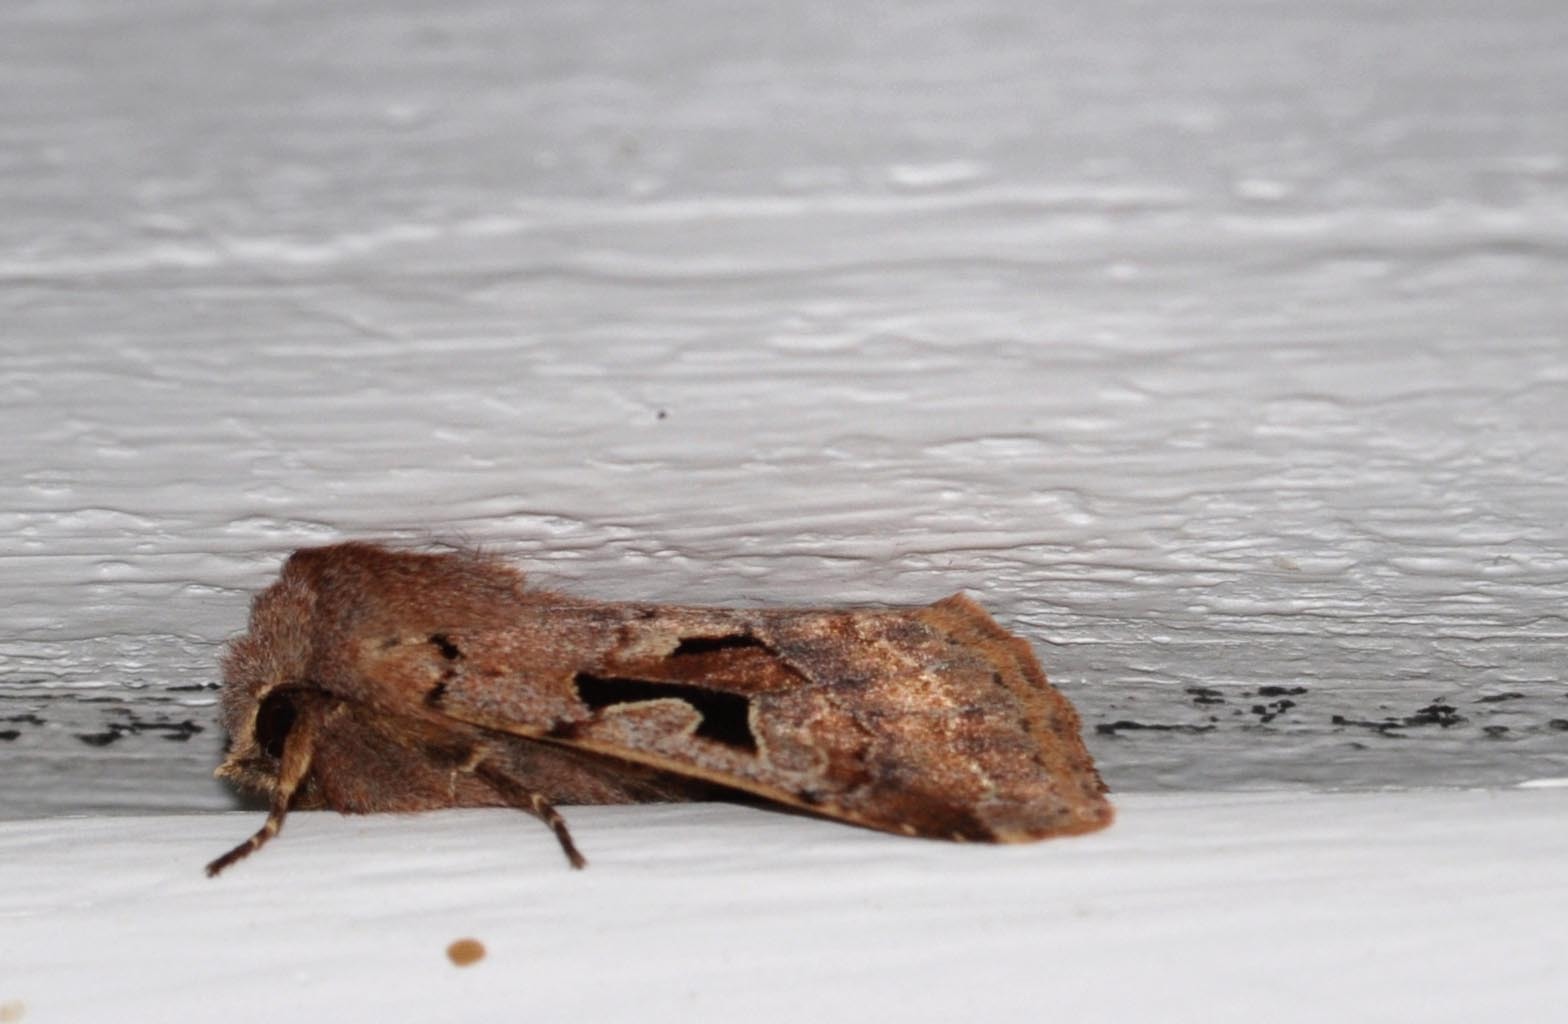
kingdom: Animalia
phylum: Arthropoda
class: Insecta
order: Lepidoptera
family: Noctuidae
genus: Orthosia
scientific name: Orthosia gothica
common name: Hebrew character
